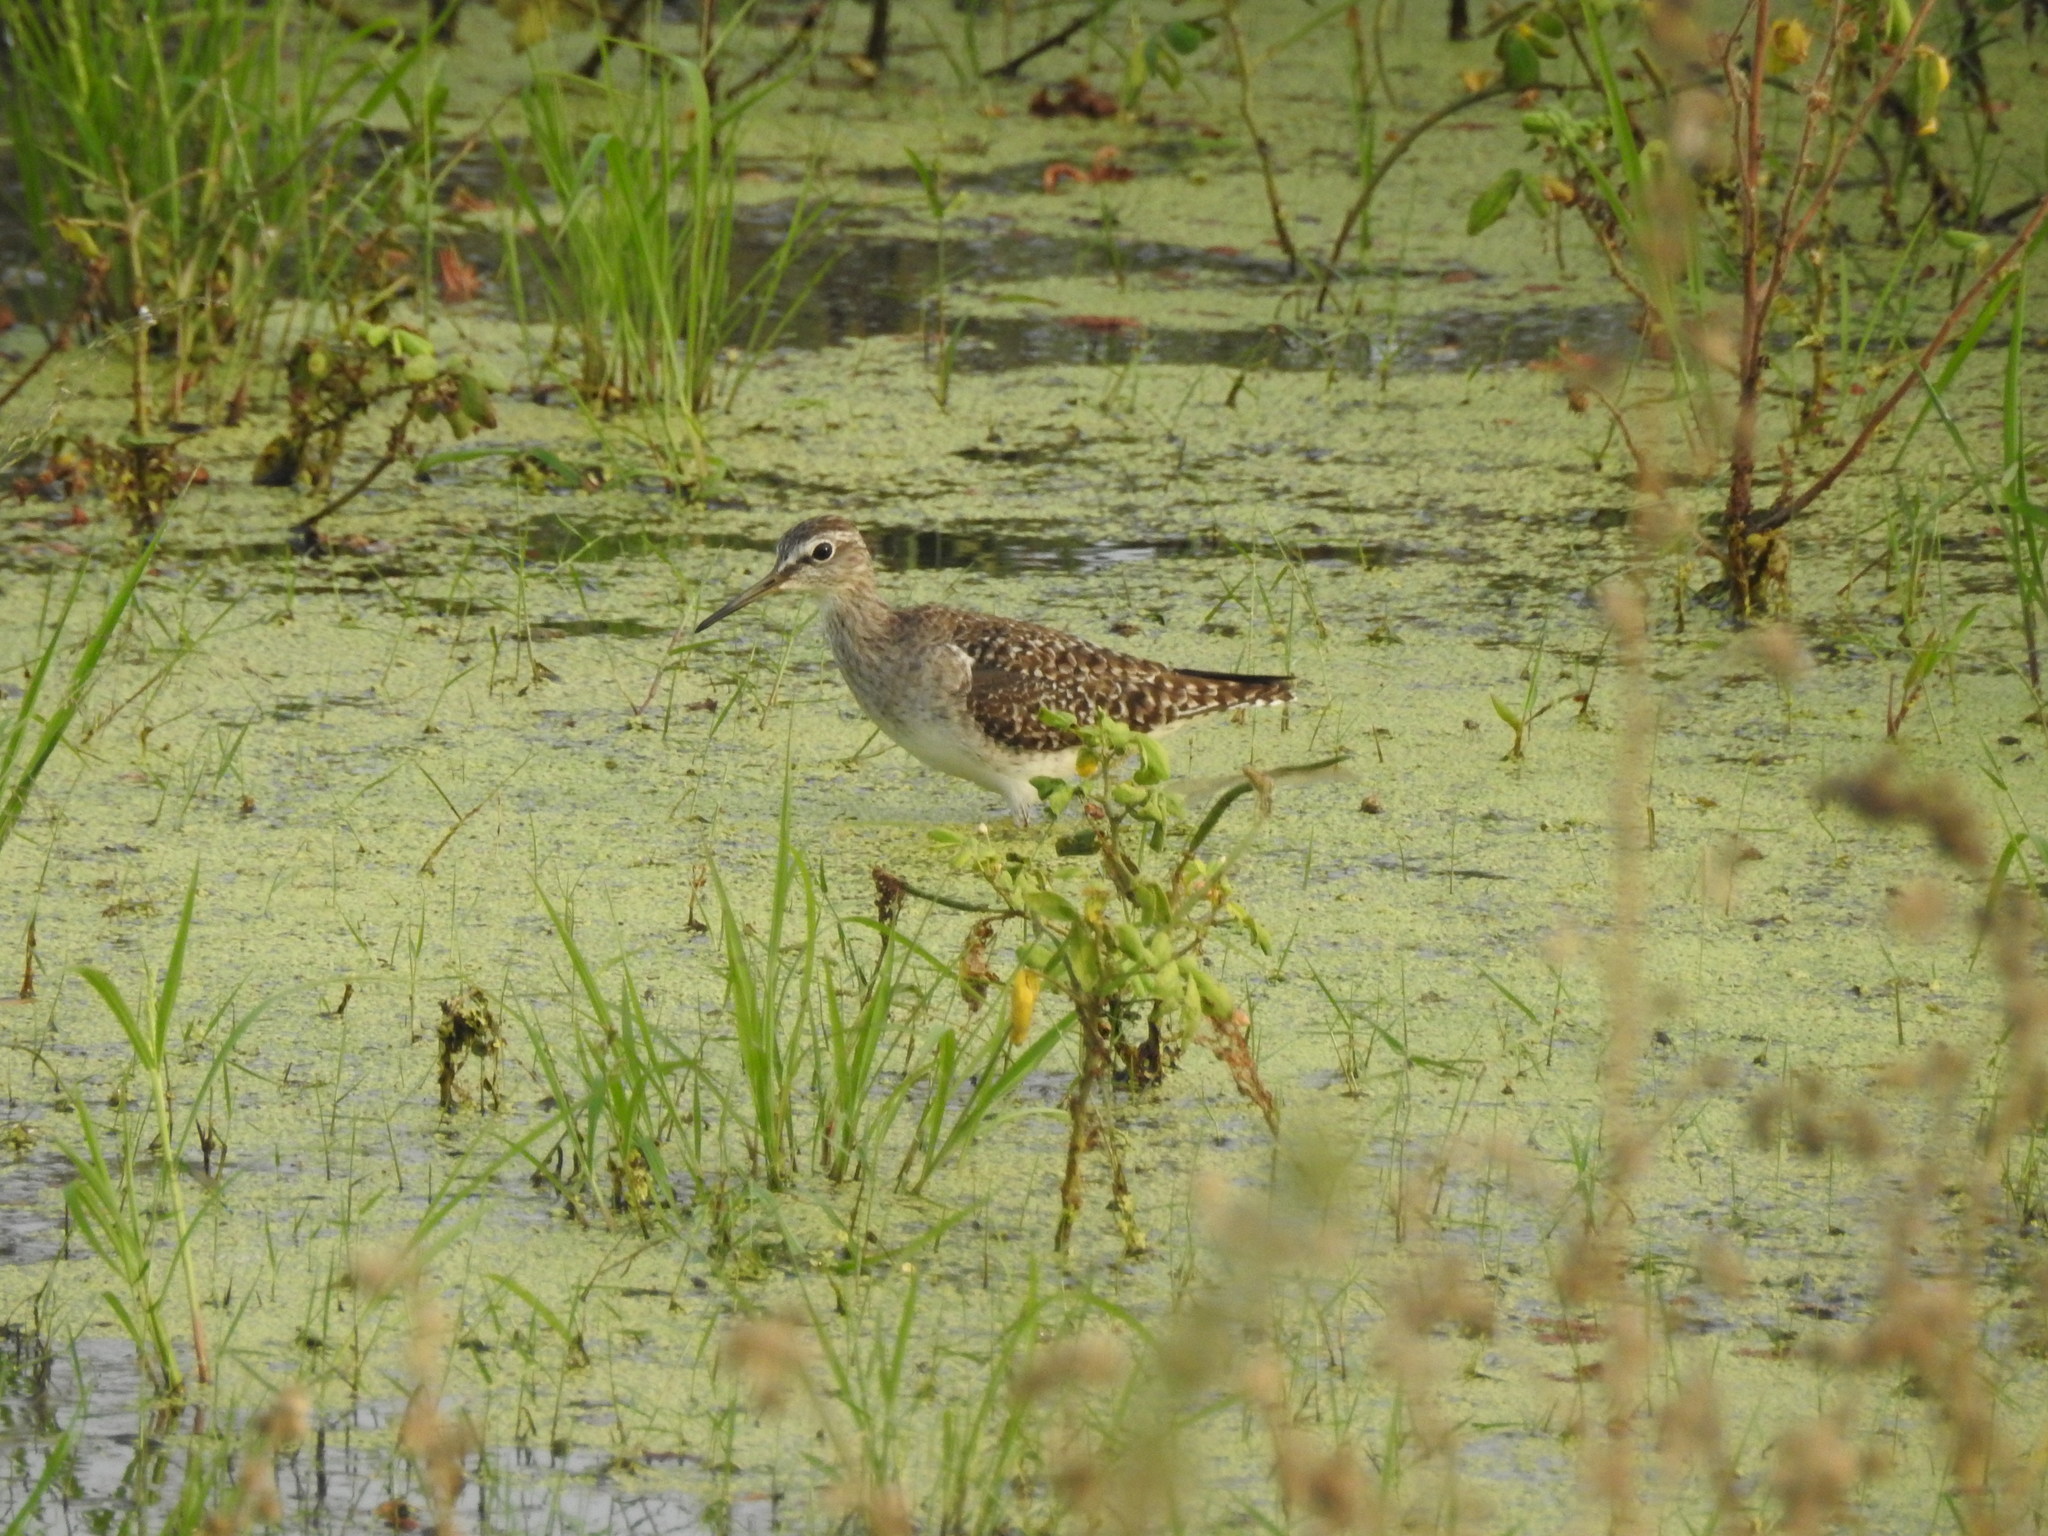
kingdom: Animalia
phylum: Chordata
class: Aves
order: Charadriiformes
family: Scolopacidae
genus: Tringa
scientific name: Tringa glareola
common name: Wood sandpiper
